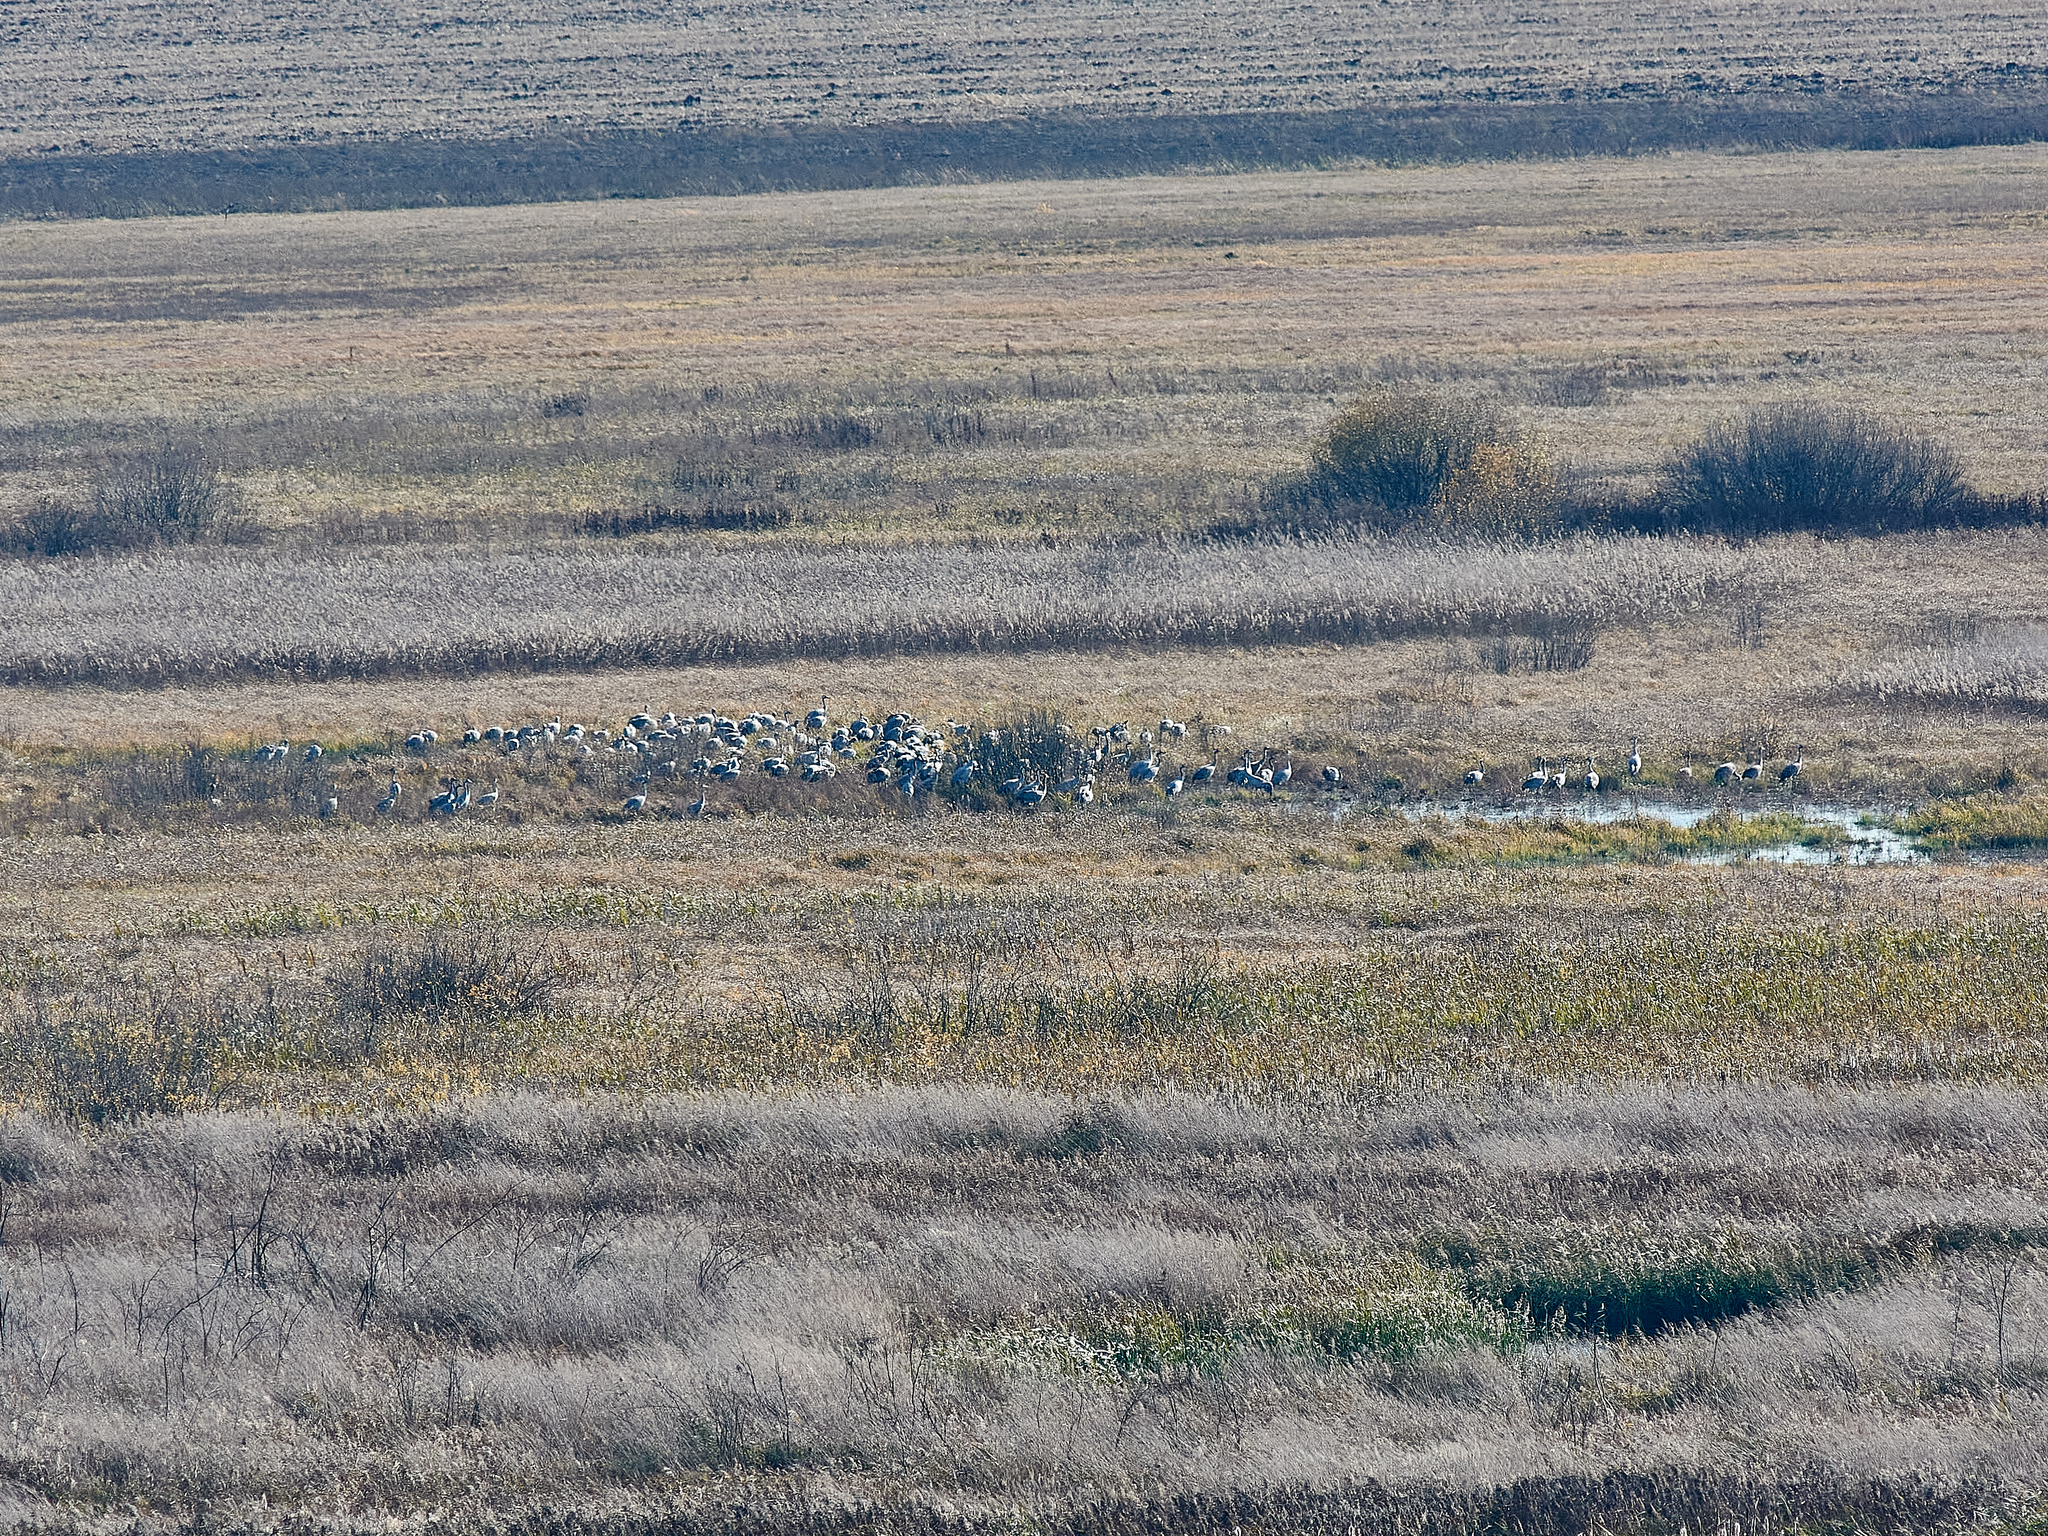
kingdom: Animalia
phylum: Chordata
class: Aves
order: Gruiformes
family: Gruidae
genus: Grus
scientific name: Grus grus
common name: Common crane
